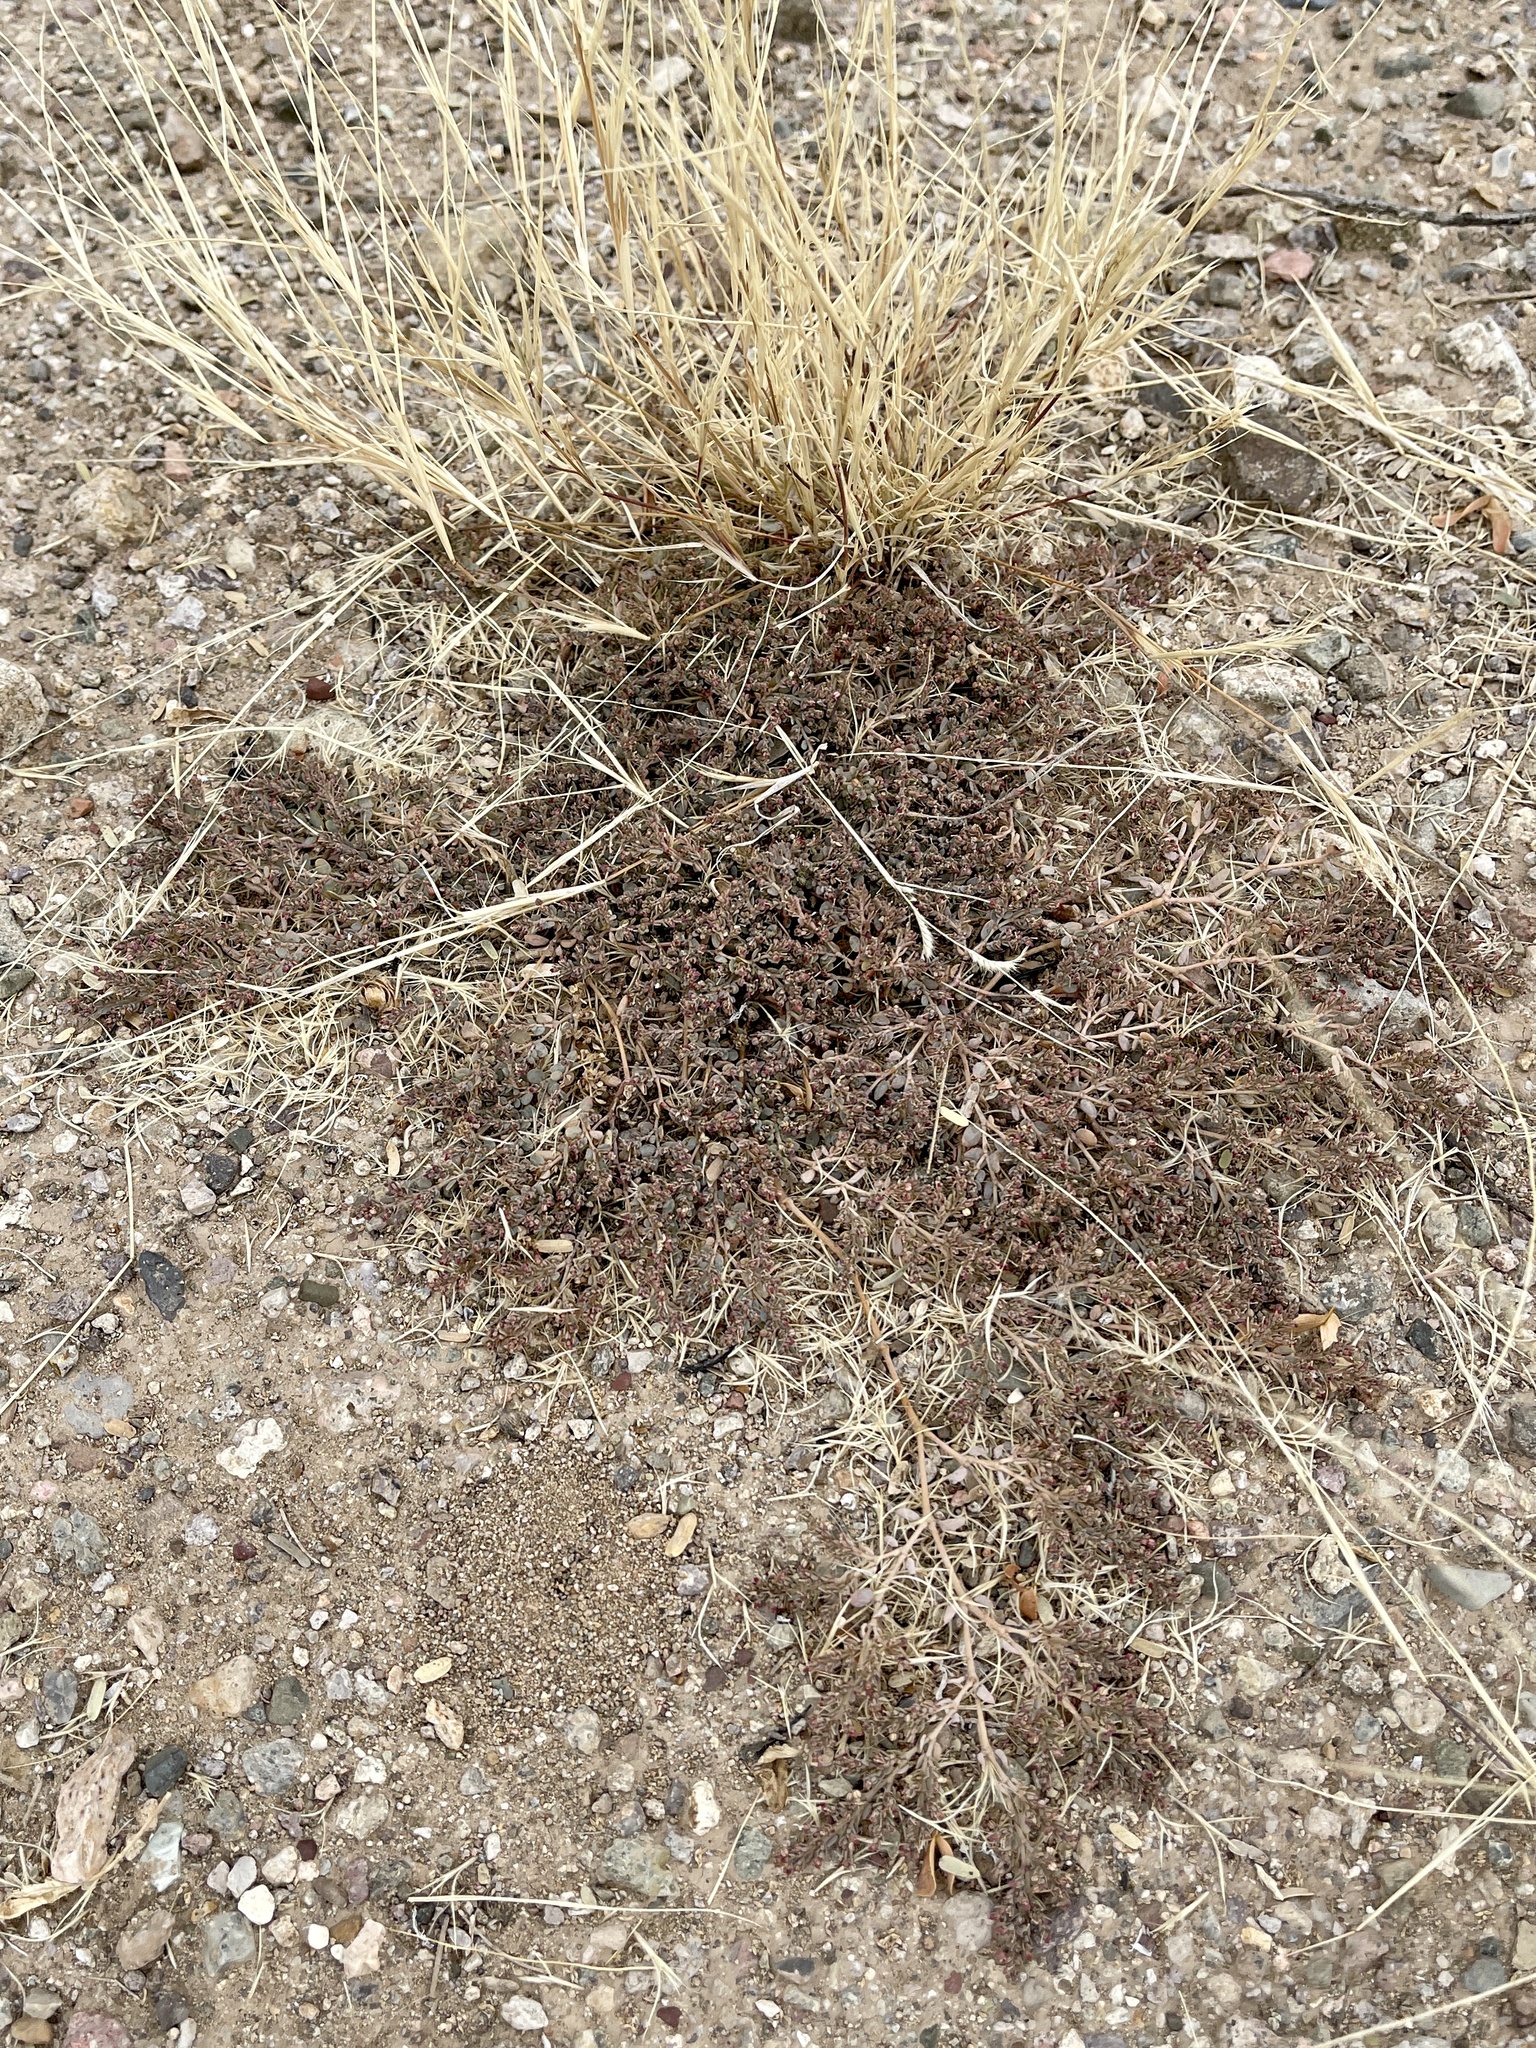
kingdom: Plantae
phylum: Tracheophyta
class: Magnoliopsida
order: Malpighiales
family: Euphorbiaceae
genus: Euphorbia
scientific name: Euphorbia micromera
